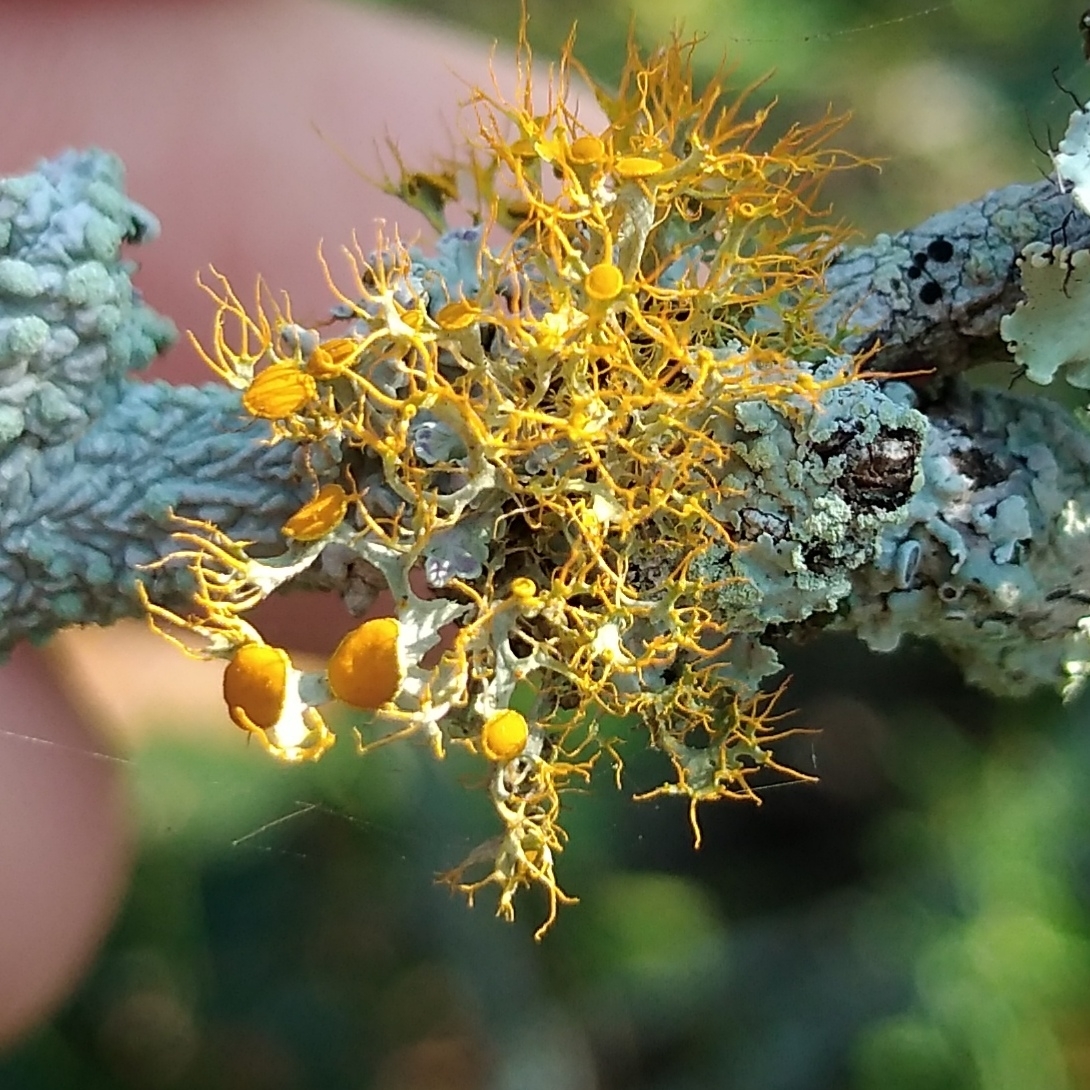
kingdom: Fungi
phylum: Ascomycota
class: Lecanoromycetes
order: Teloschistales
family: Teloschistaceae
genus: Teloschistes
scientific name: Teloschistes pulvinaris
